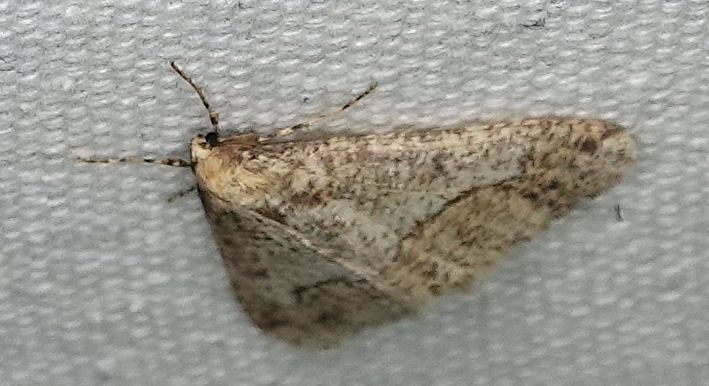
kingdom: Animalia
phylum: Arthropoda
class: Insecta
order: Lepidoptera
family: Geometridae
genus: Erannis
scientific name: Erannis tiliaria
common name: Linden looper
